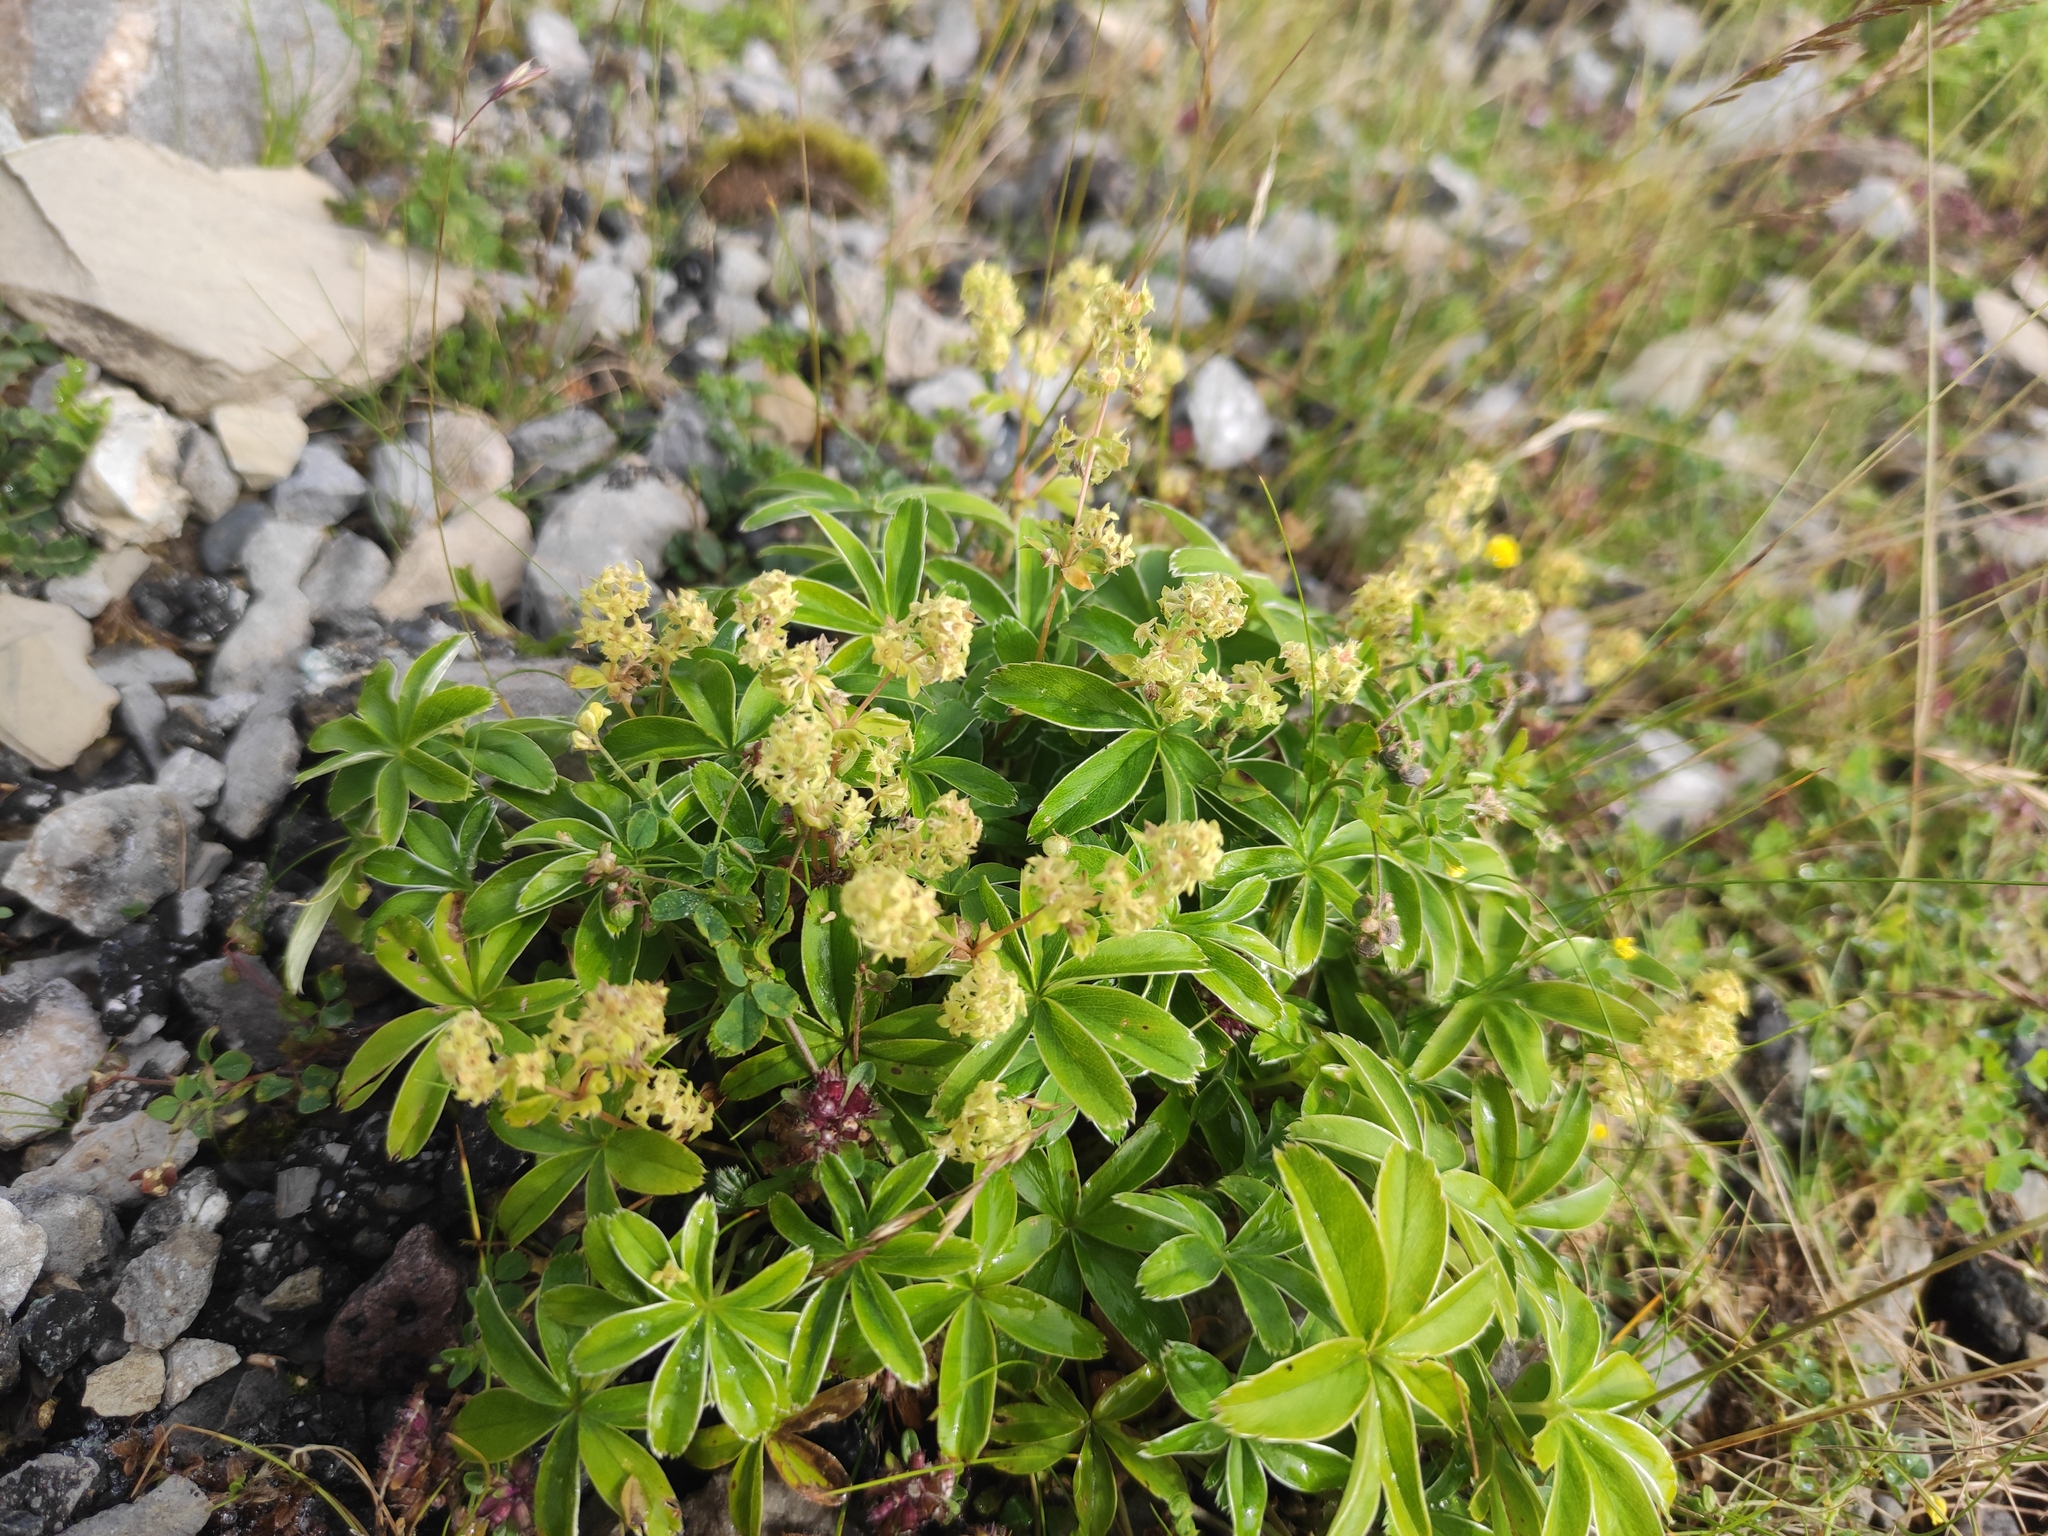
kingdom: Plantae
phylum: Tracheophyta
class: Magnoliopsida
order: Rosales
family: Rosaceae
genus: Alchemilla
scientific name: Alchemilla nitida
